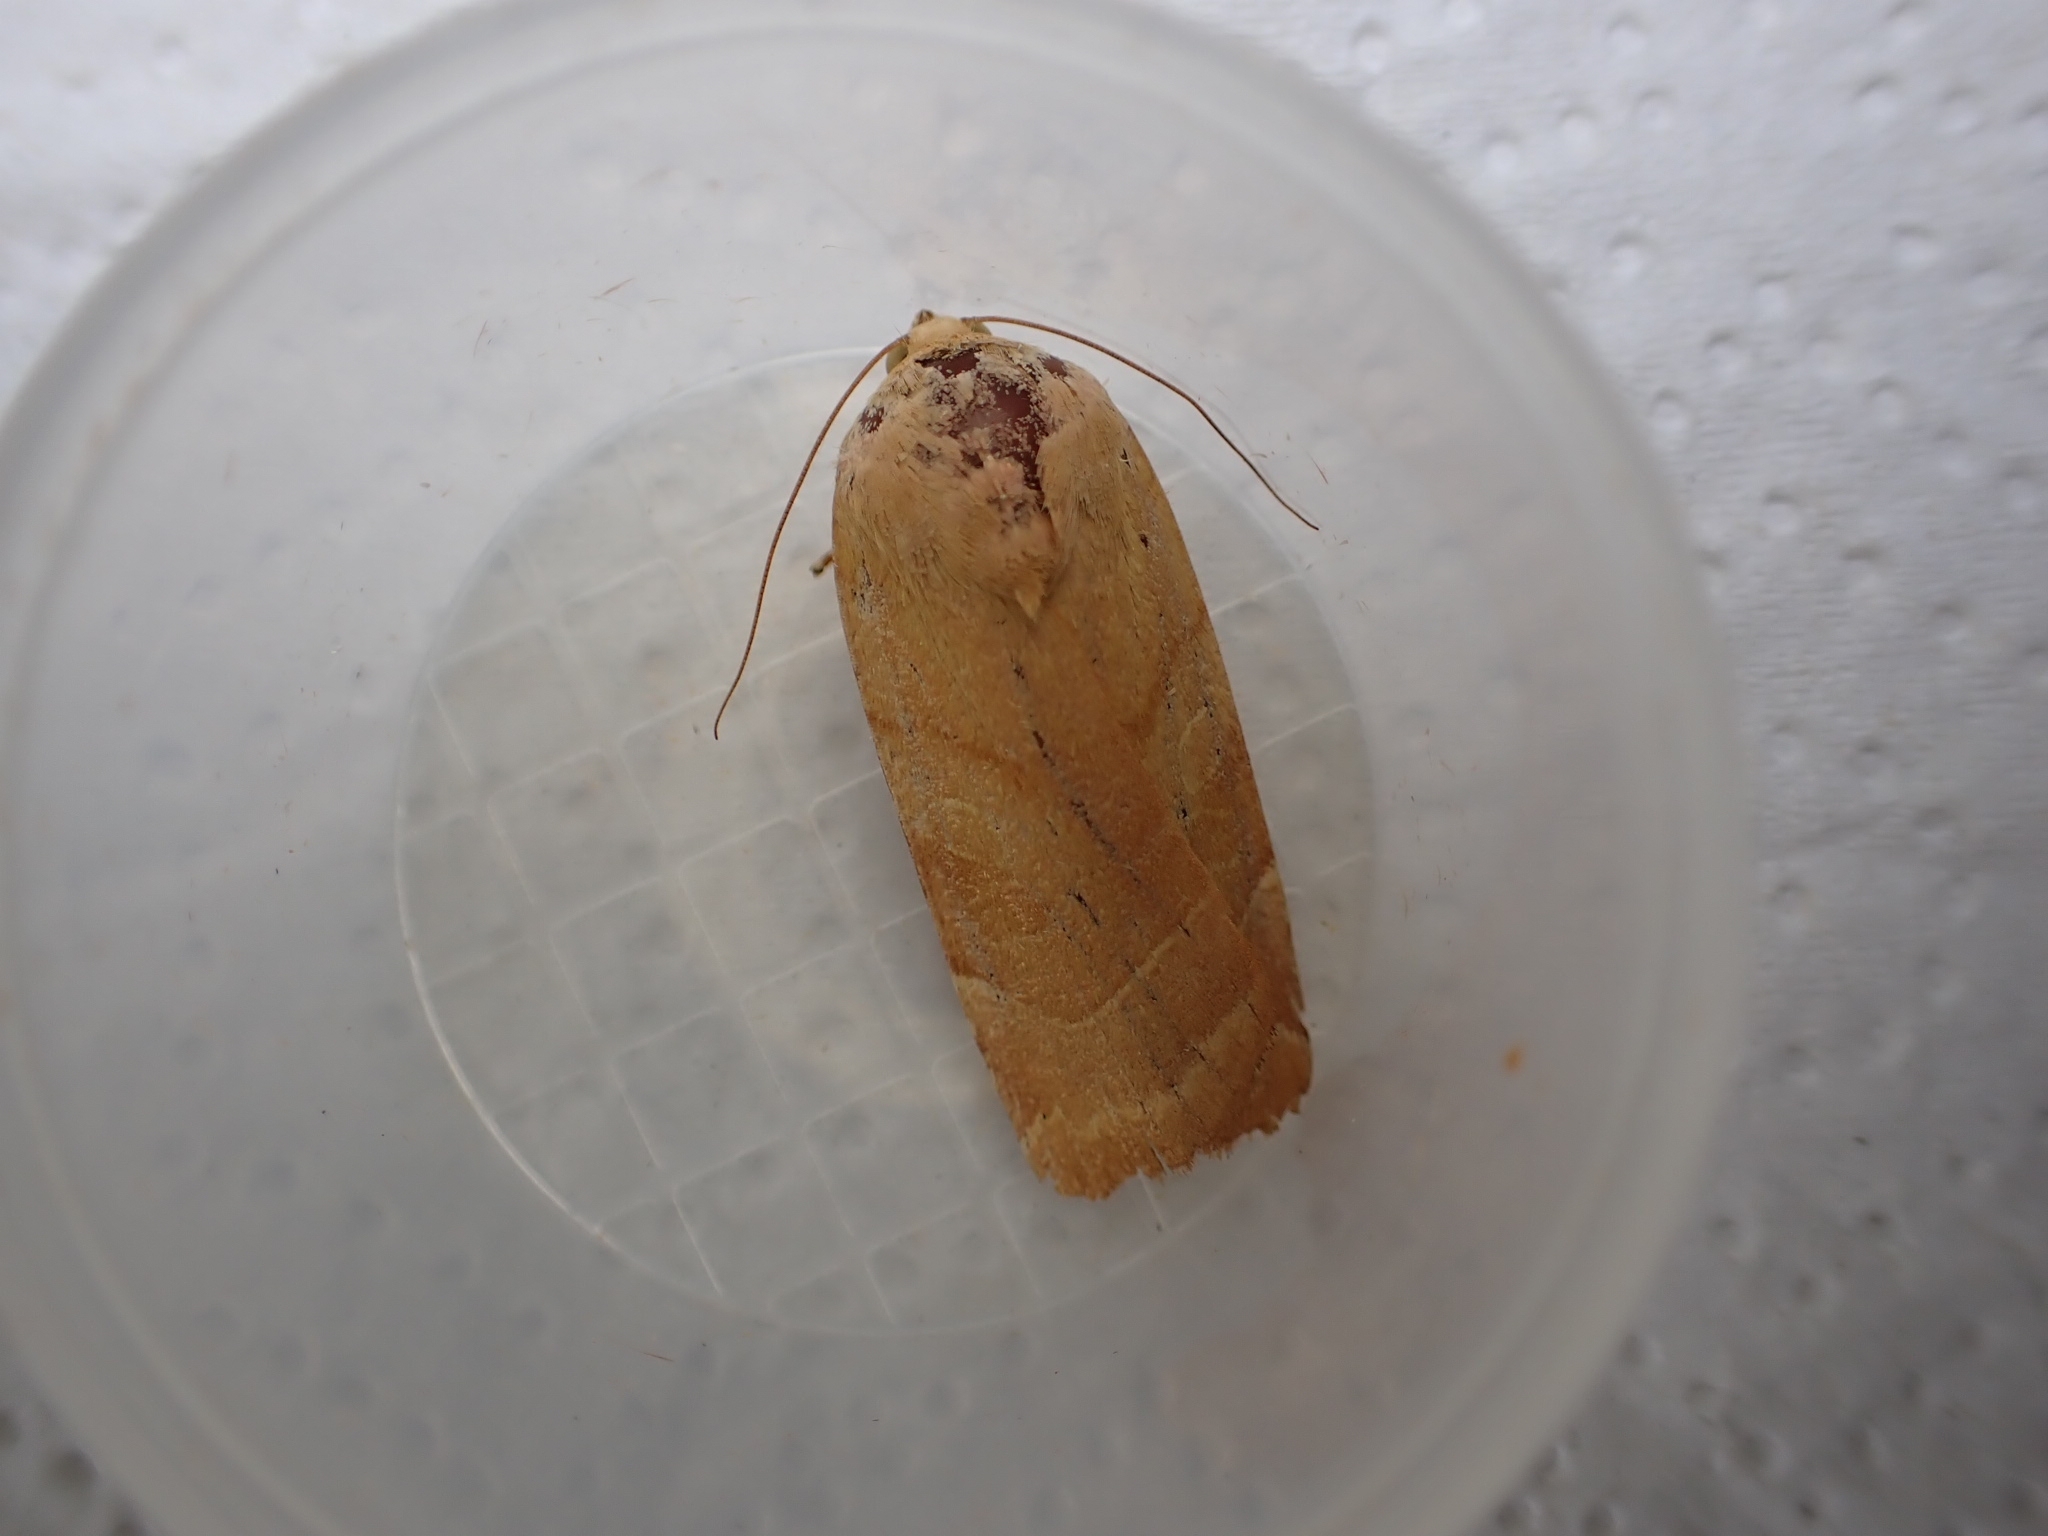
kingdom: Animalia
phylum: Arthropoda
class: Insecta
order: Lepidoptera
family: Noctuidae
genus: Noctua
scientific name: Noctua fimbriata
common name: Broad-bordered yellow underwing
